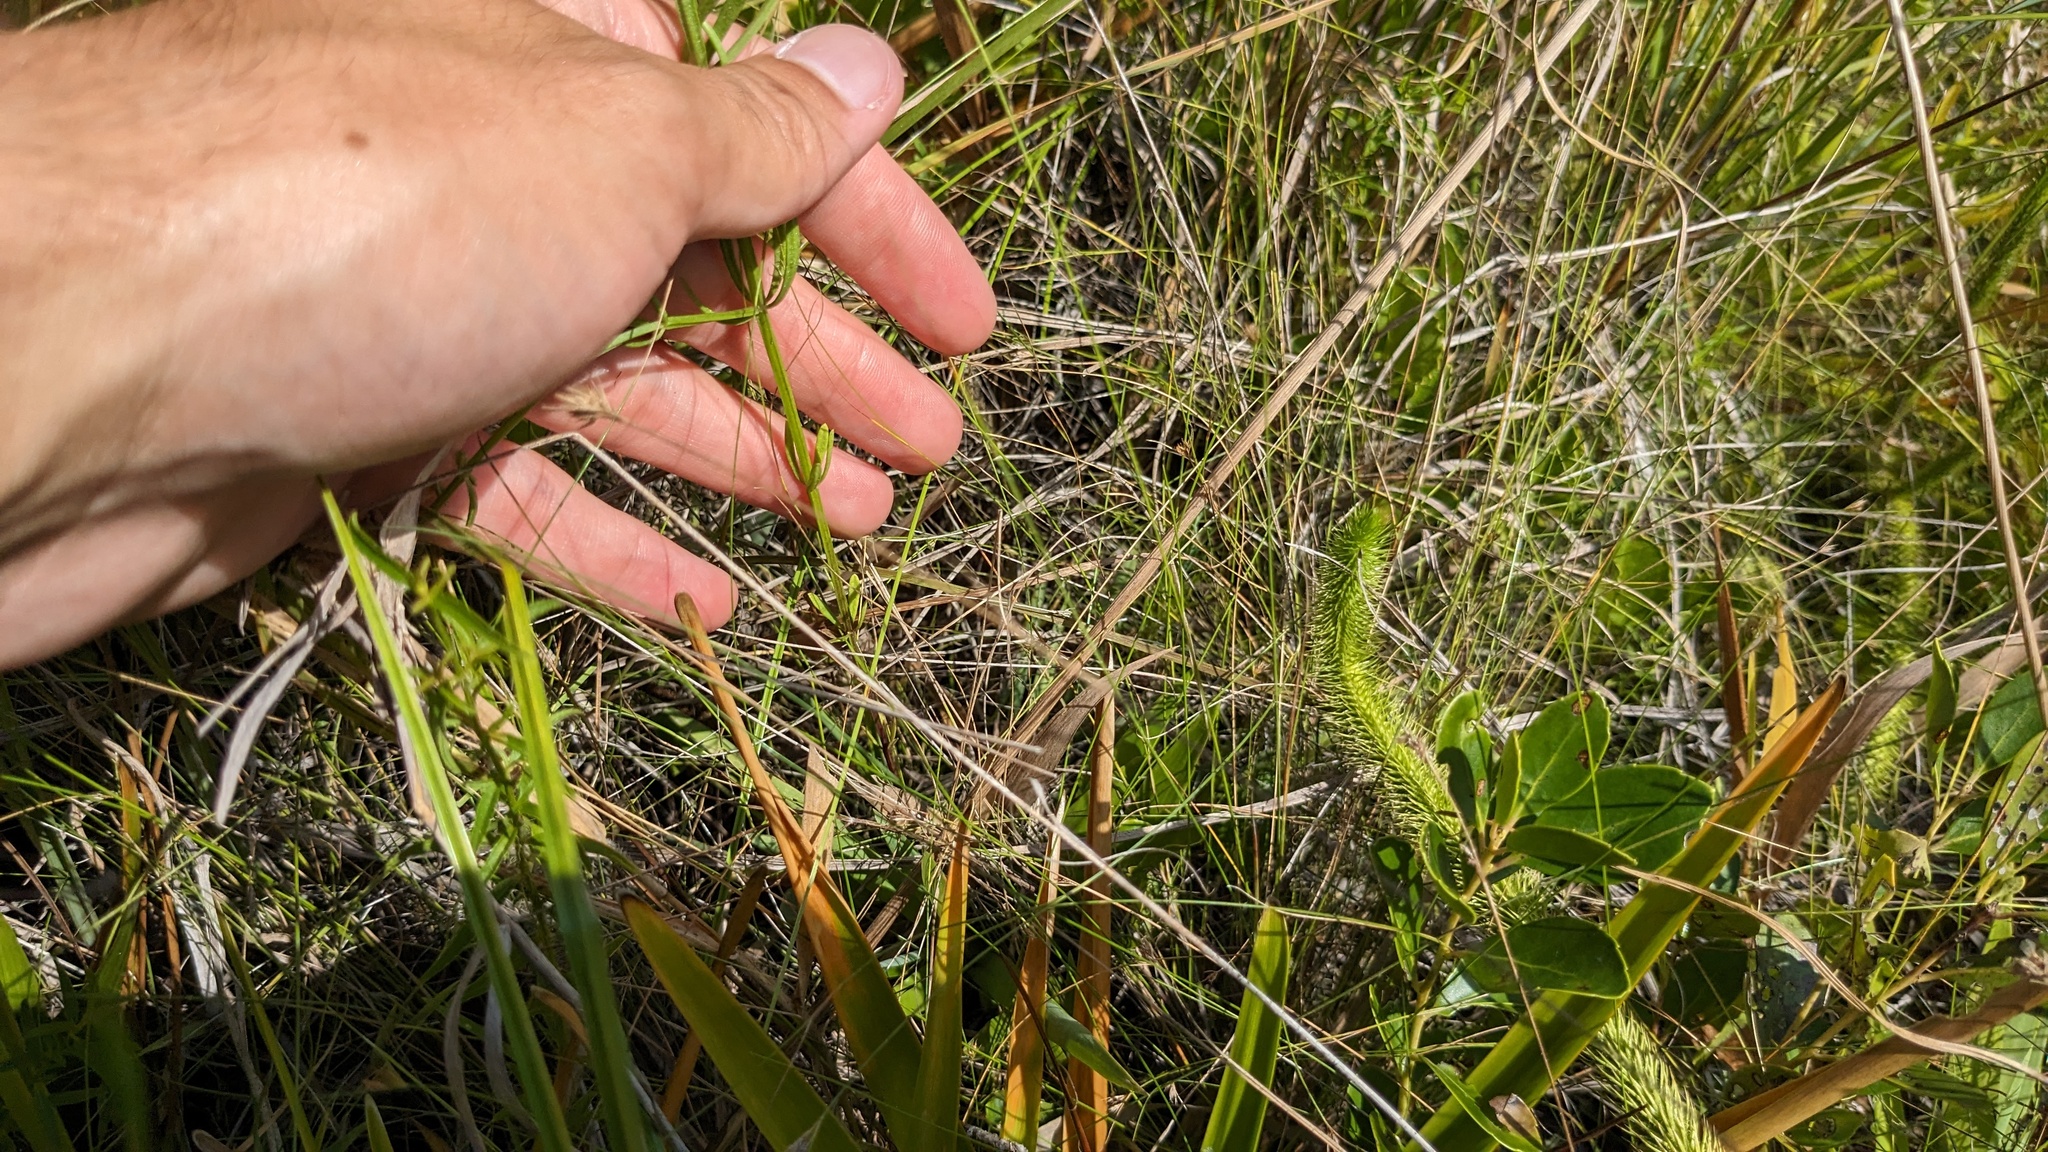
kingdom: Plantae
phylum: Tracheophyta
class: Magnoliopsida
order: Fabales
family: Polygalaceae
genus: Polygala
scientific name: Polygala cruciata
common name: Drumheads
